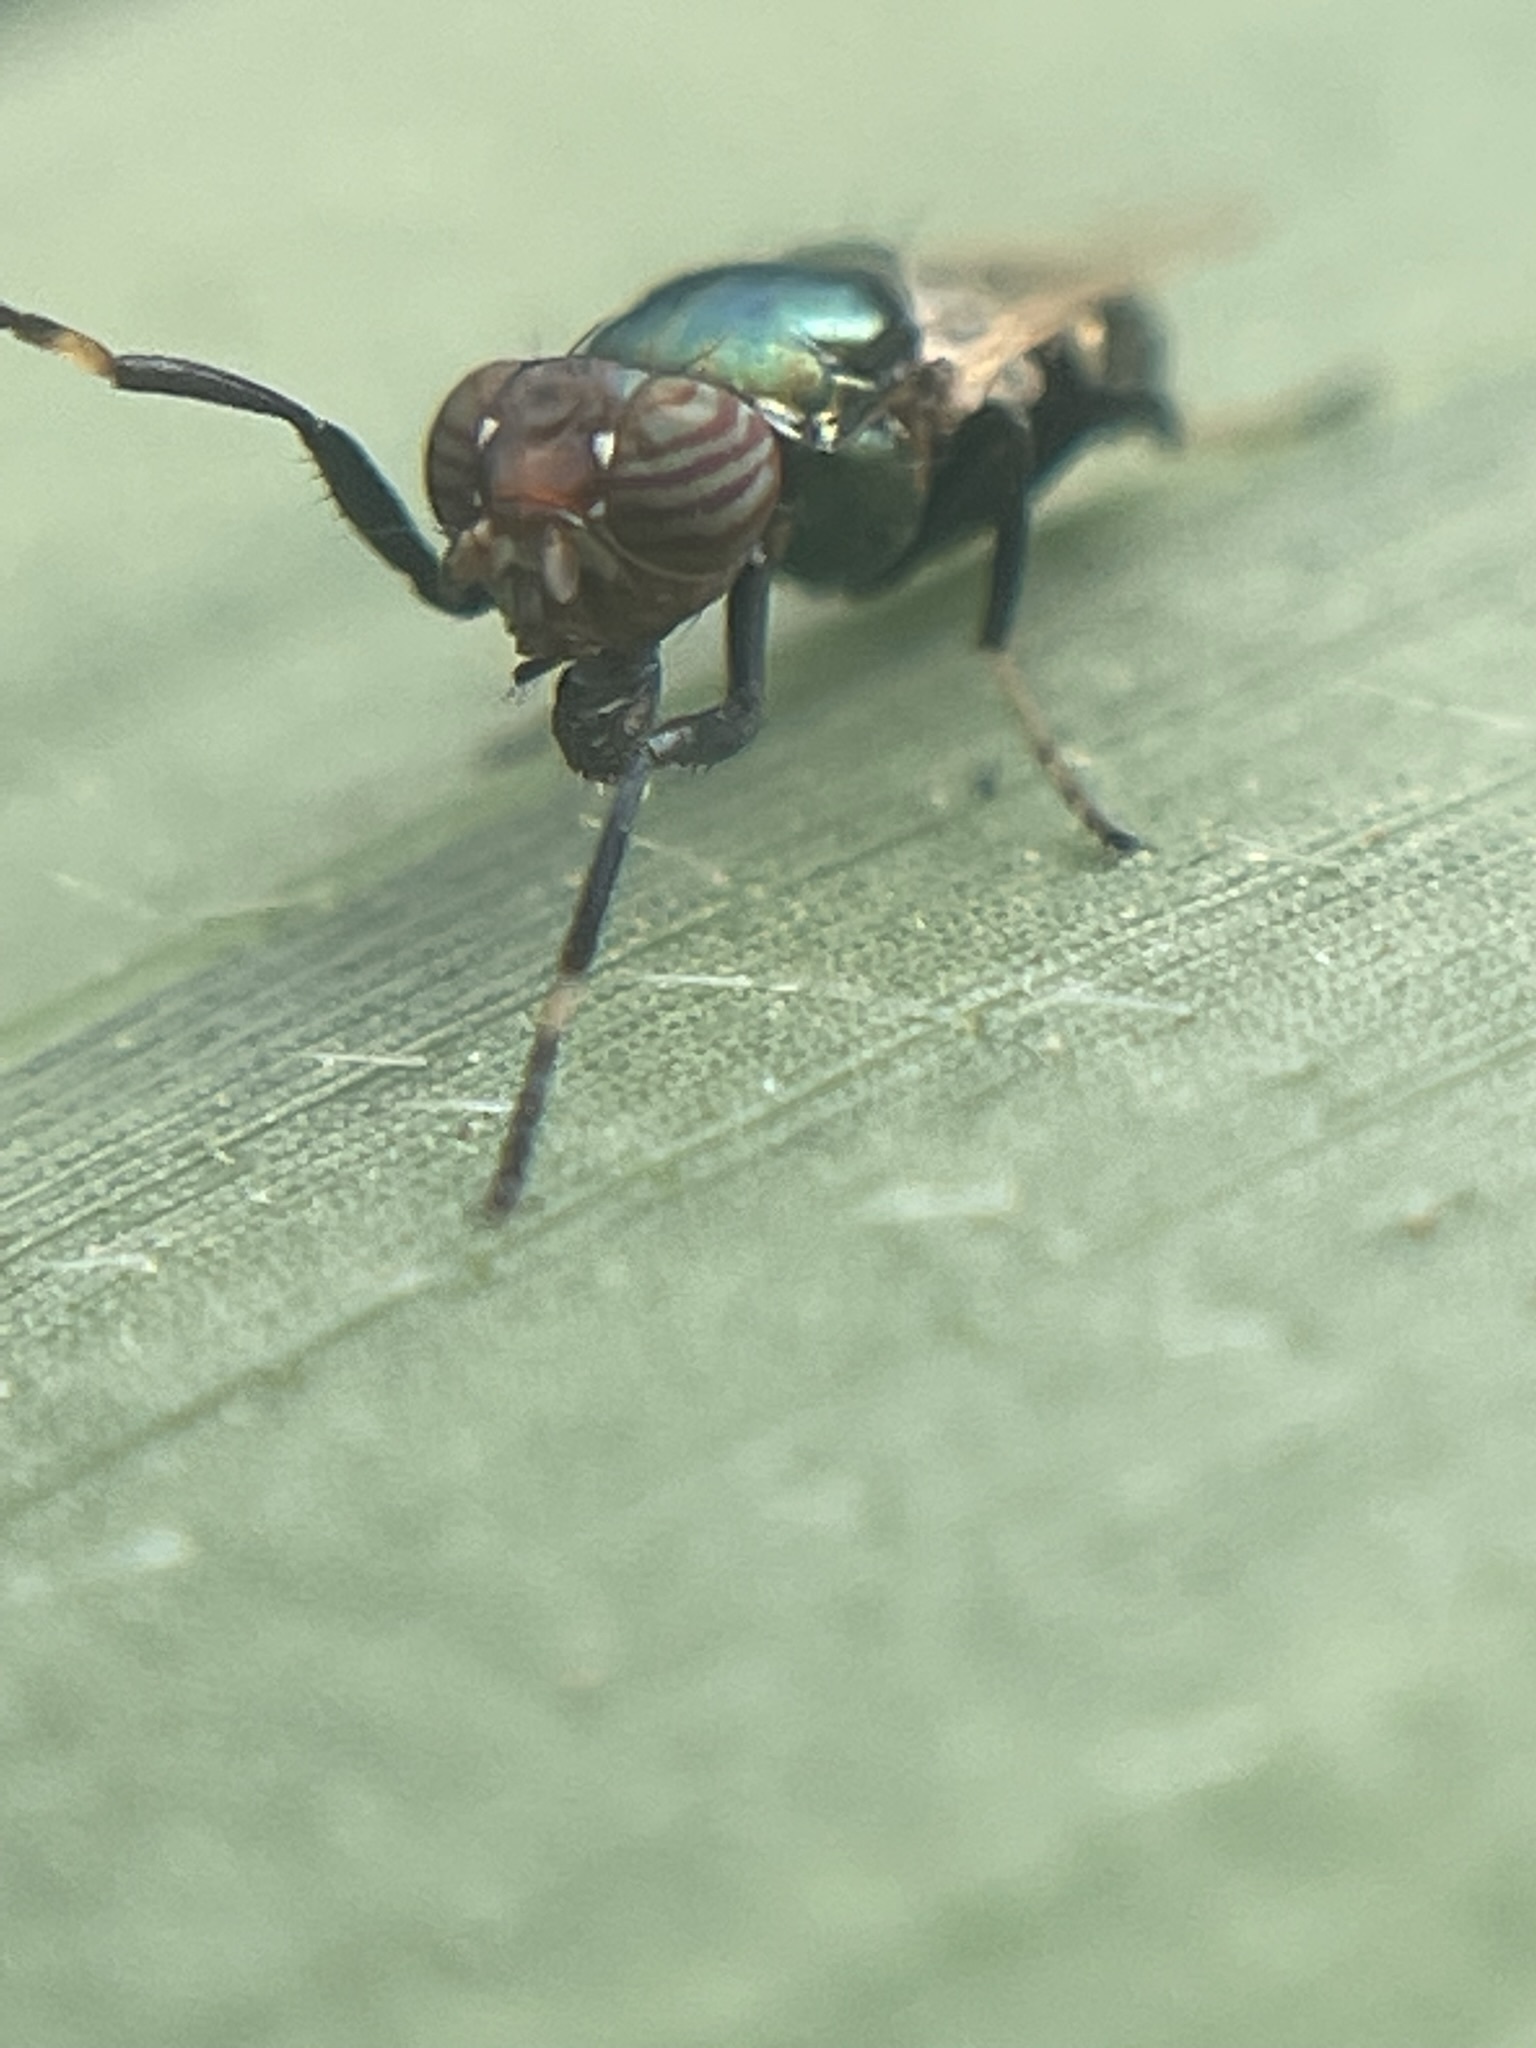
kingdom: Animalia
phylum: Arthropoda
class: Insecta
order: Diptera
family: Ulidiidae
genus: Physiphora
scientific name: Physiphora alceae
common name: Picture-winged fly
